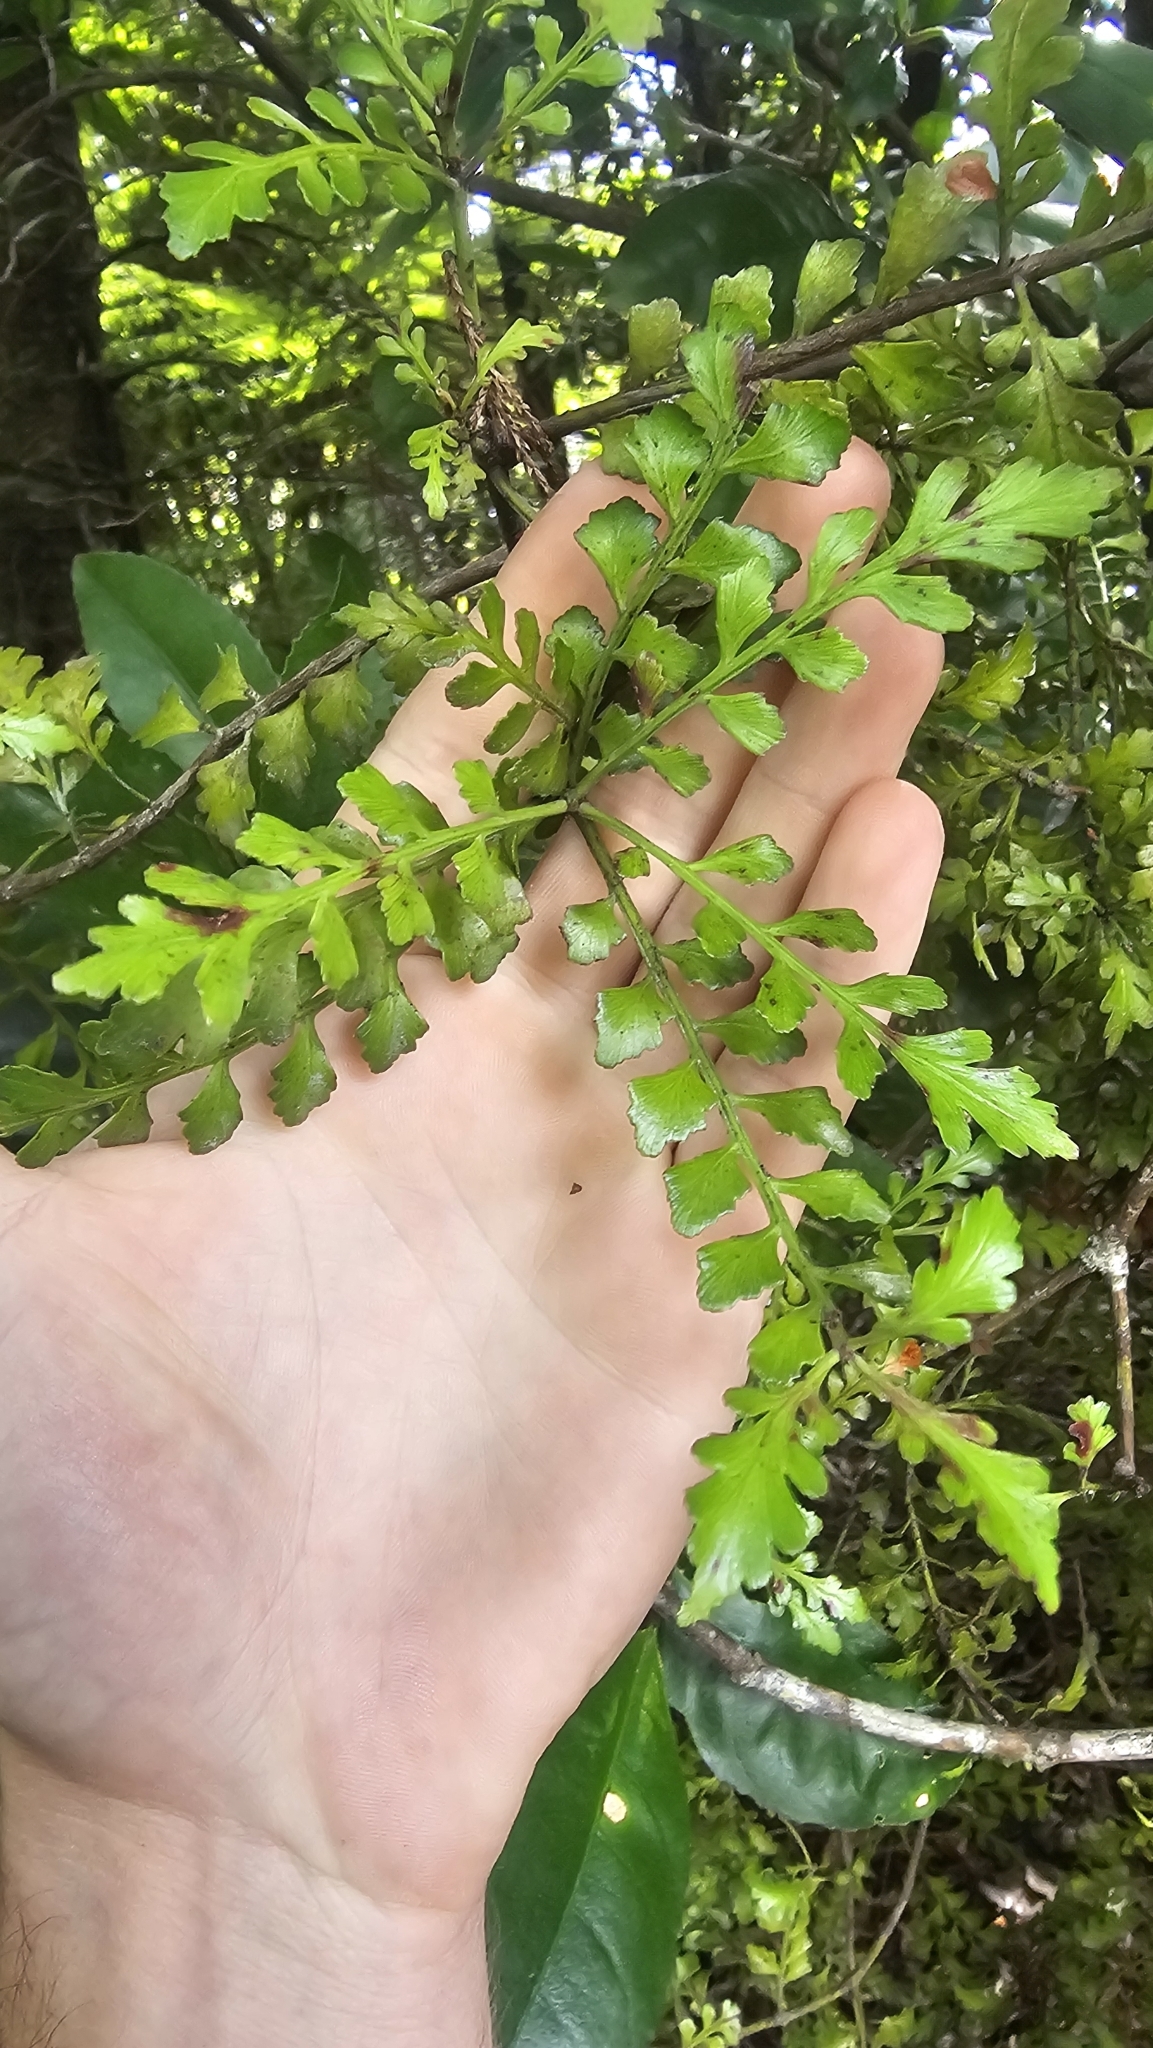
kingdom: Plantae
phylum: Tracheophyta
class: Pinopsida
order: Pinales
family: Phyllocladaceae
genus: Phyllocladus
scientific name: Phyllocladus trichomanoides
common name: Celery pine
